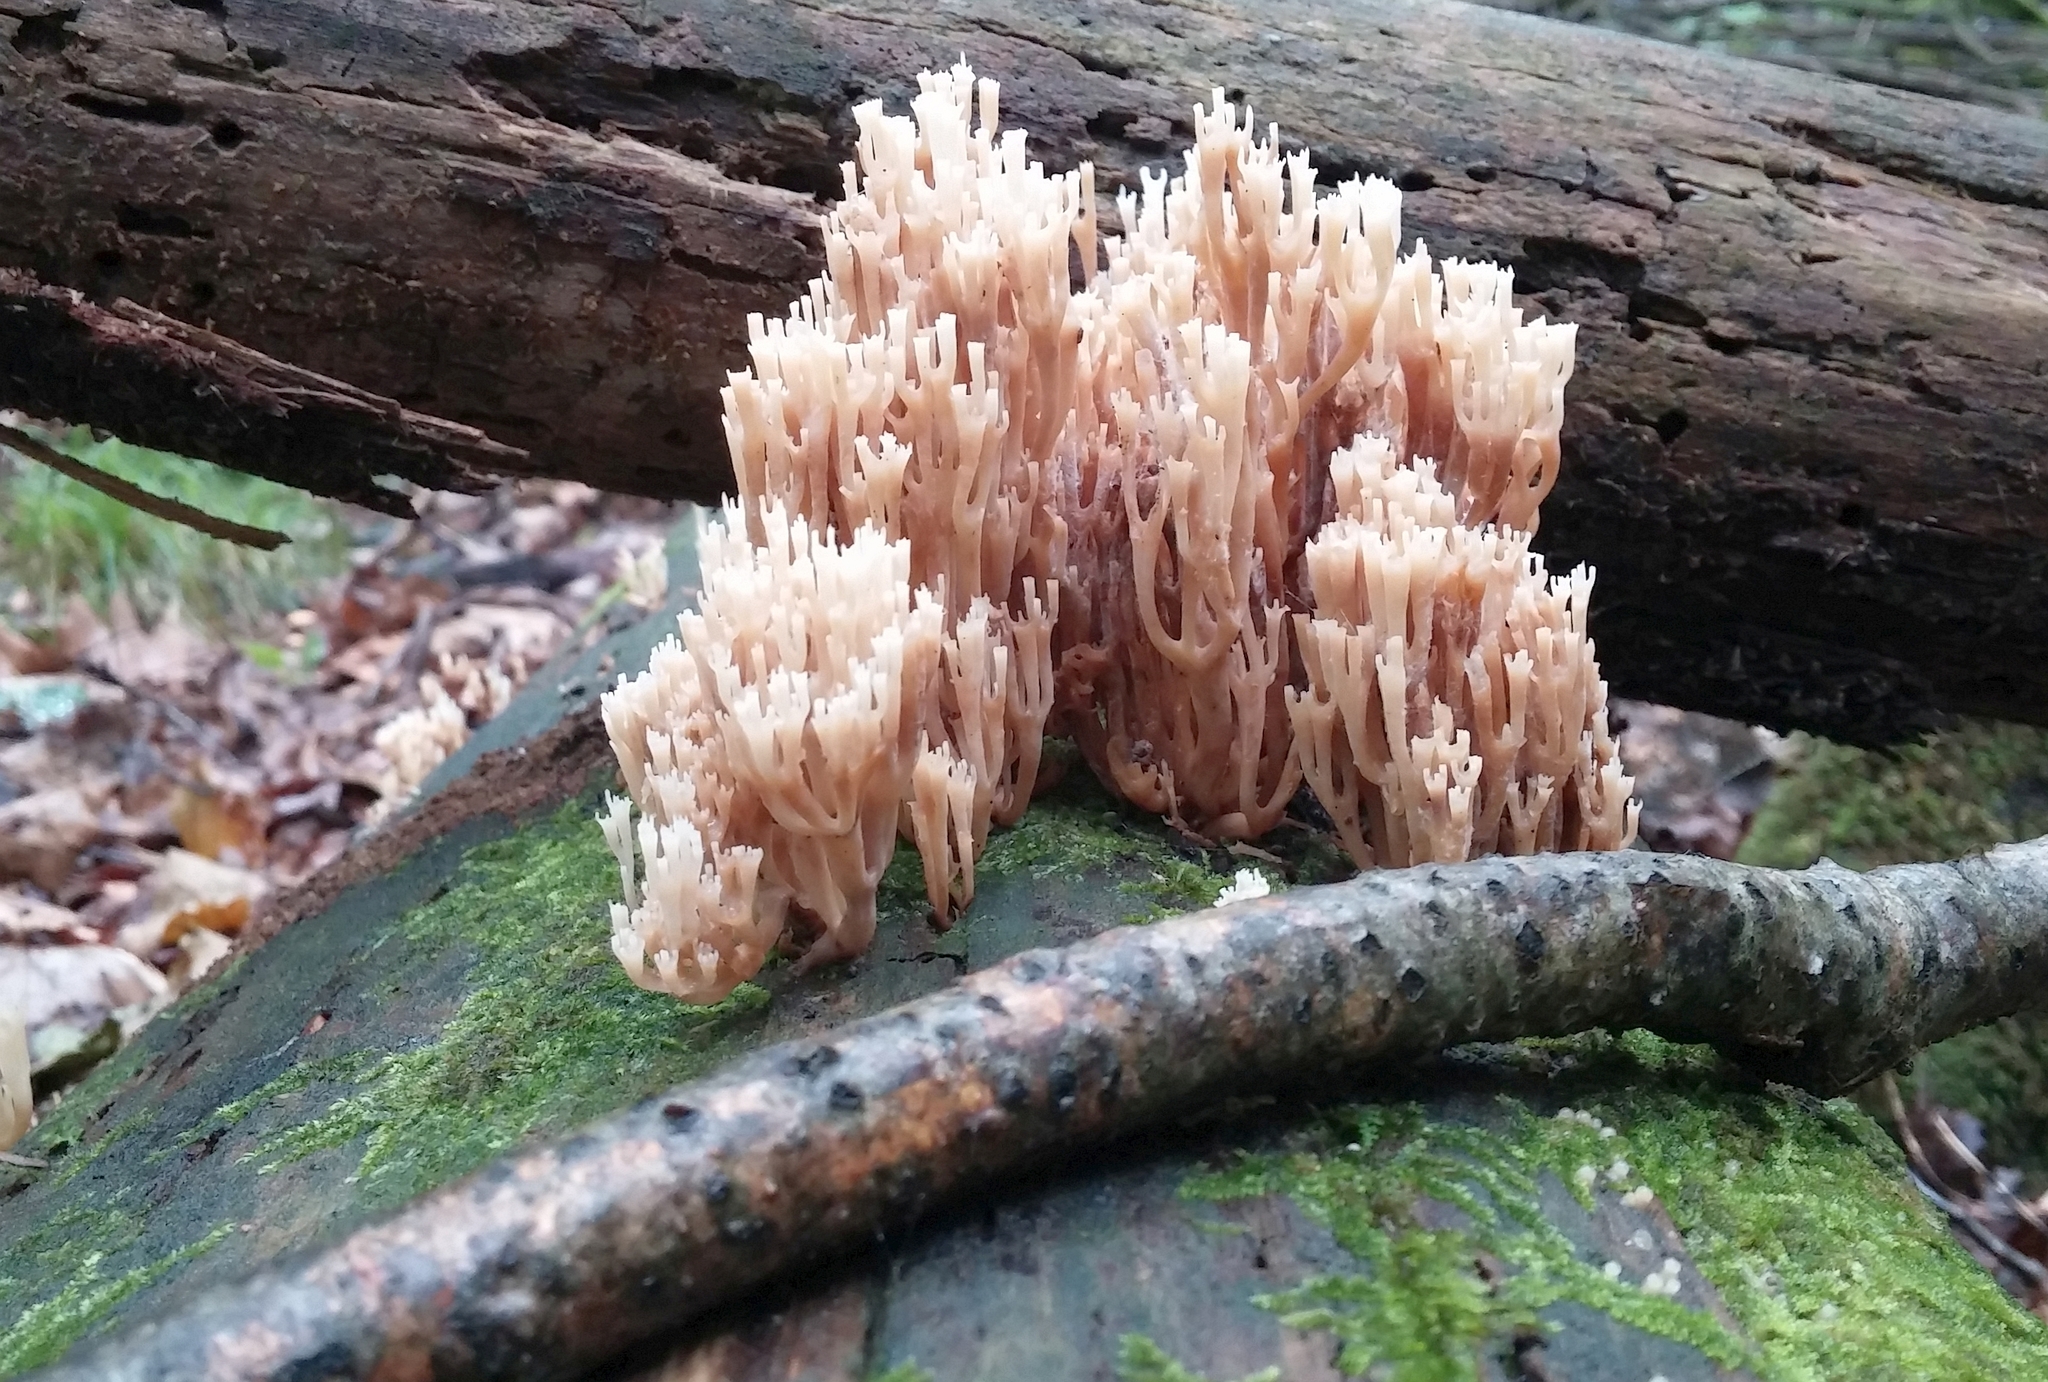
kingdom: Fungi
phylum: Basidiomycota
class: Agaricomycetes
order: Russulales
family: Auriscalpiaceae
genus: Artomyces
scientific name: Artomyces pyxidatus
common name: Crown-tipped coral fungus
